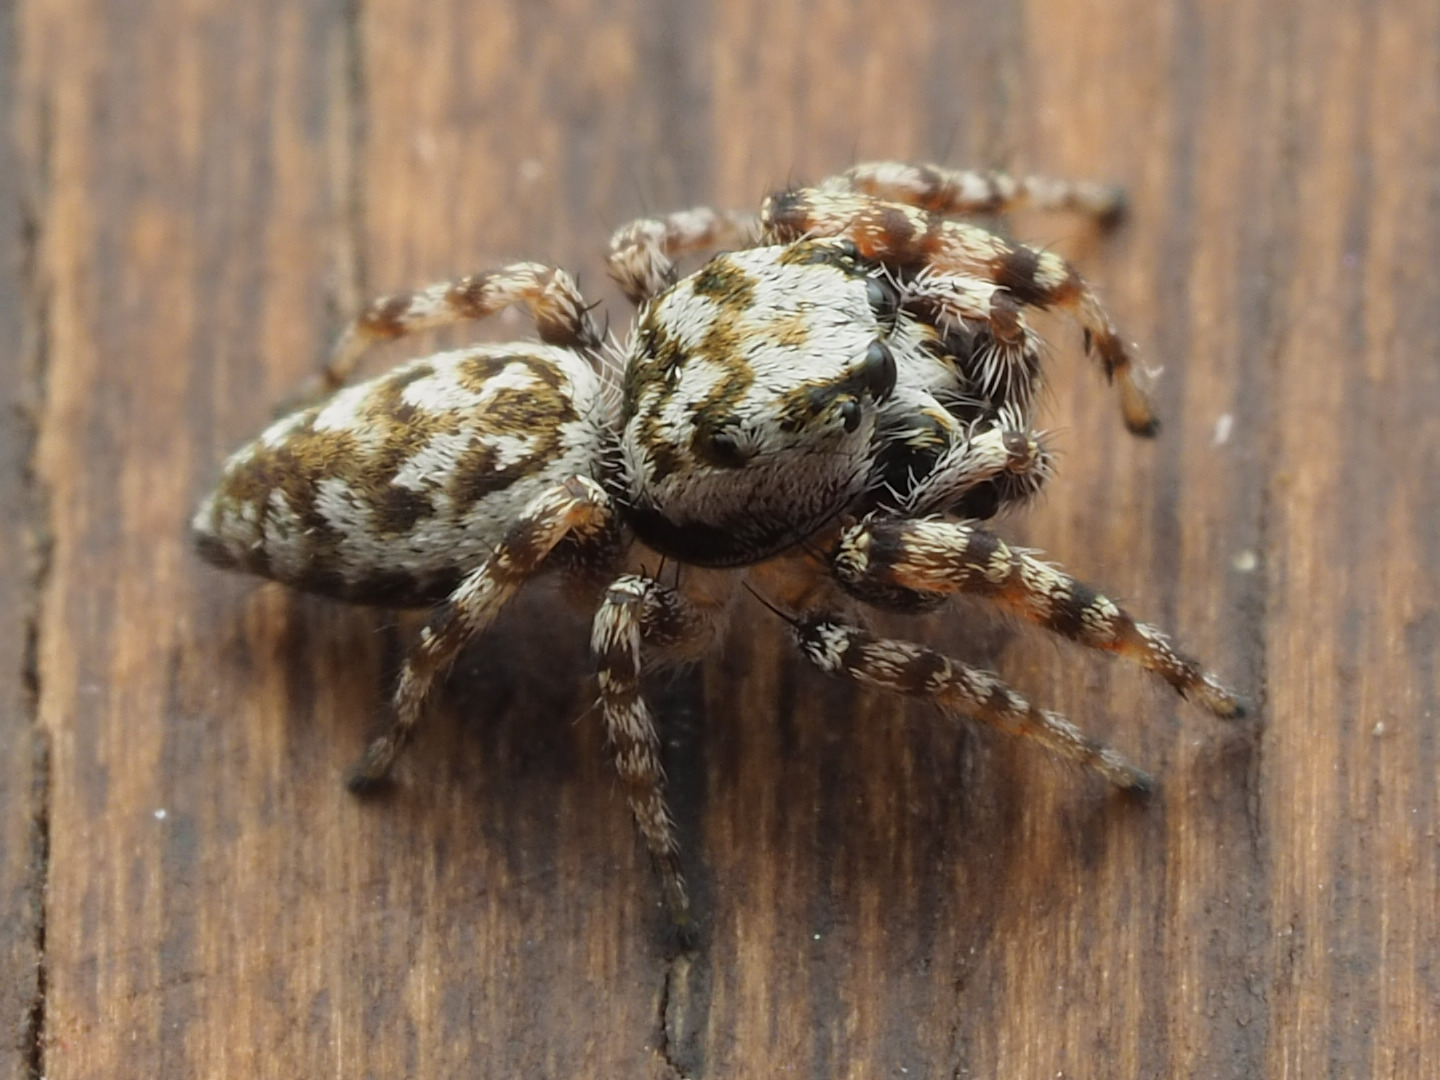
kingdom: Animalia
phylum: Arthropoda
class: Arachnida
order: Araneae
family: Salticidae
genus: Pelegrina
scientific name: Pelegrina variegata
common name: Jumping spiders
